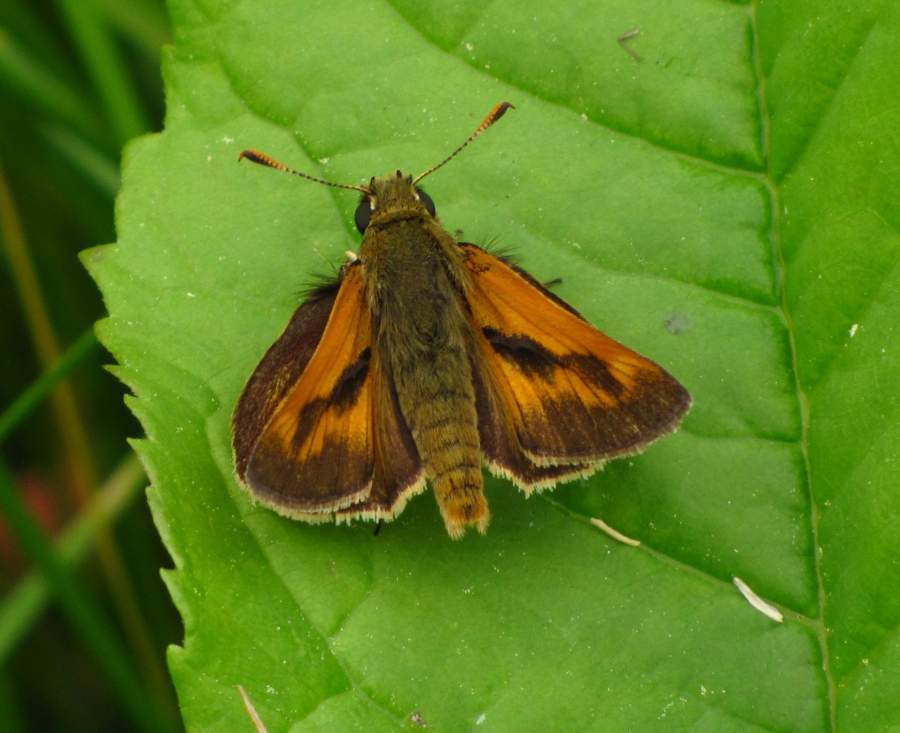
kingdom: Animalia
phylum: Arthropoda
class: Insecta
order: Lepidoptera
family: Hesperiidae
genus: Polites
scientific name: Polites mystic
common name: Long dash
